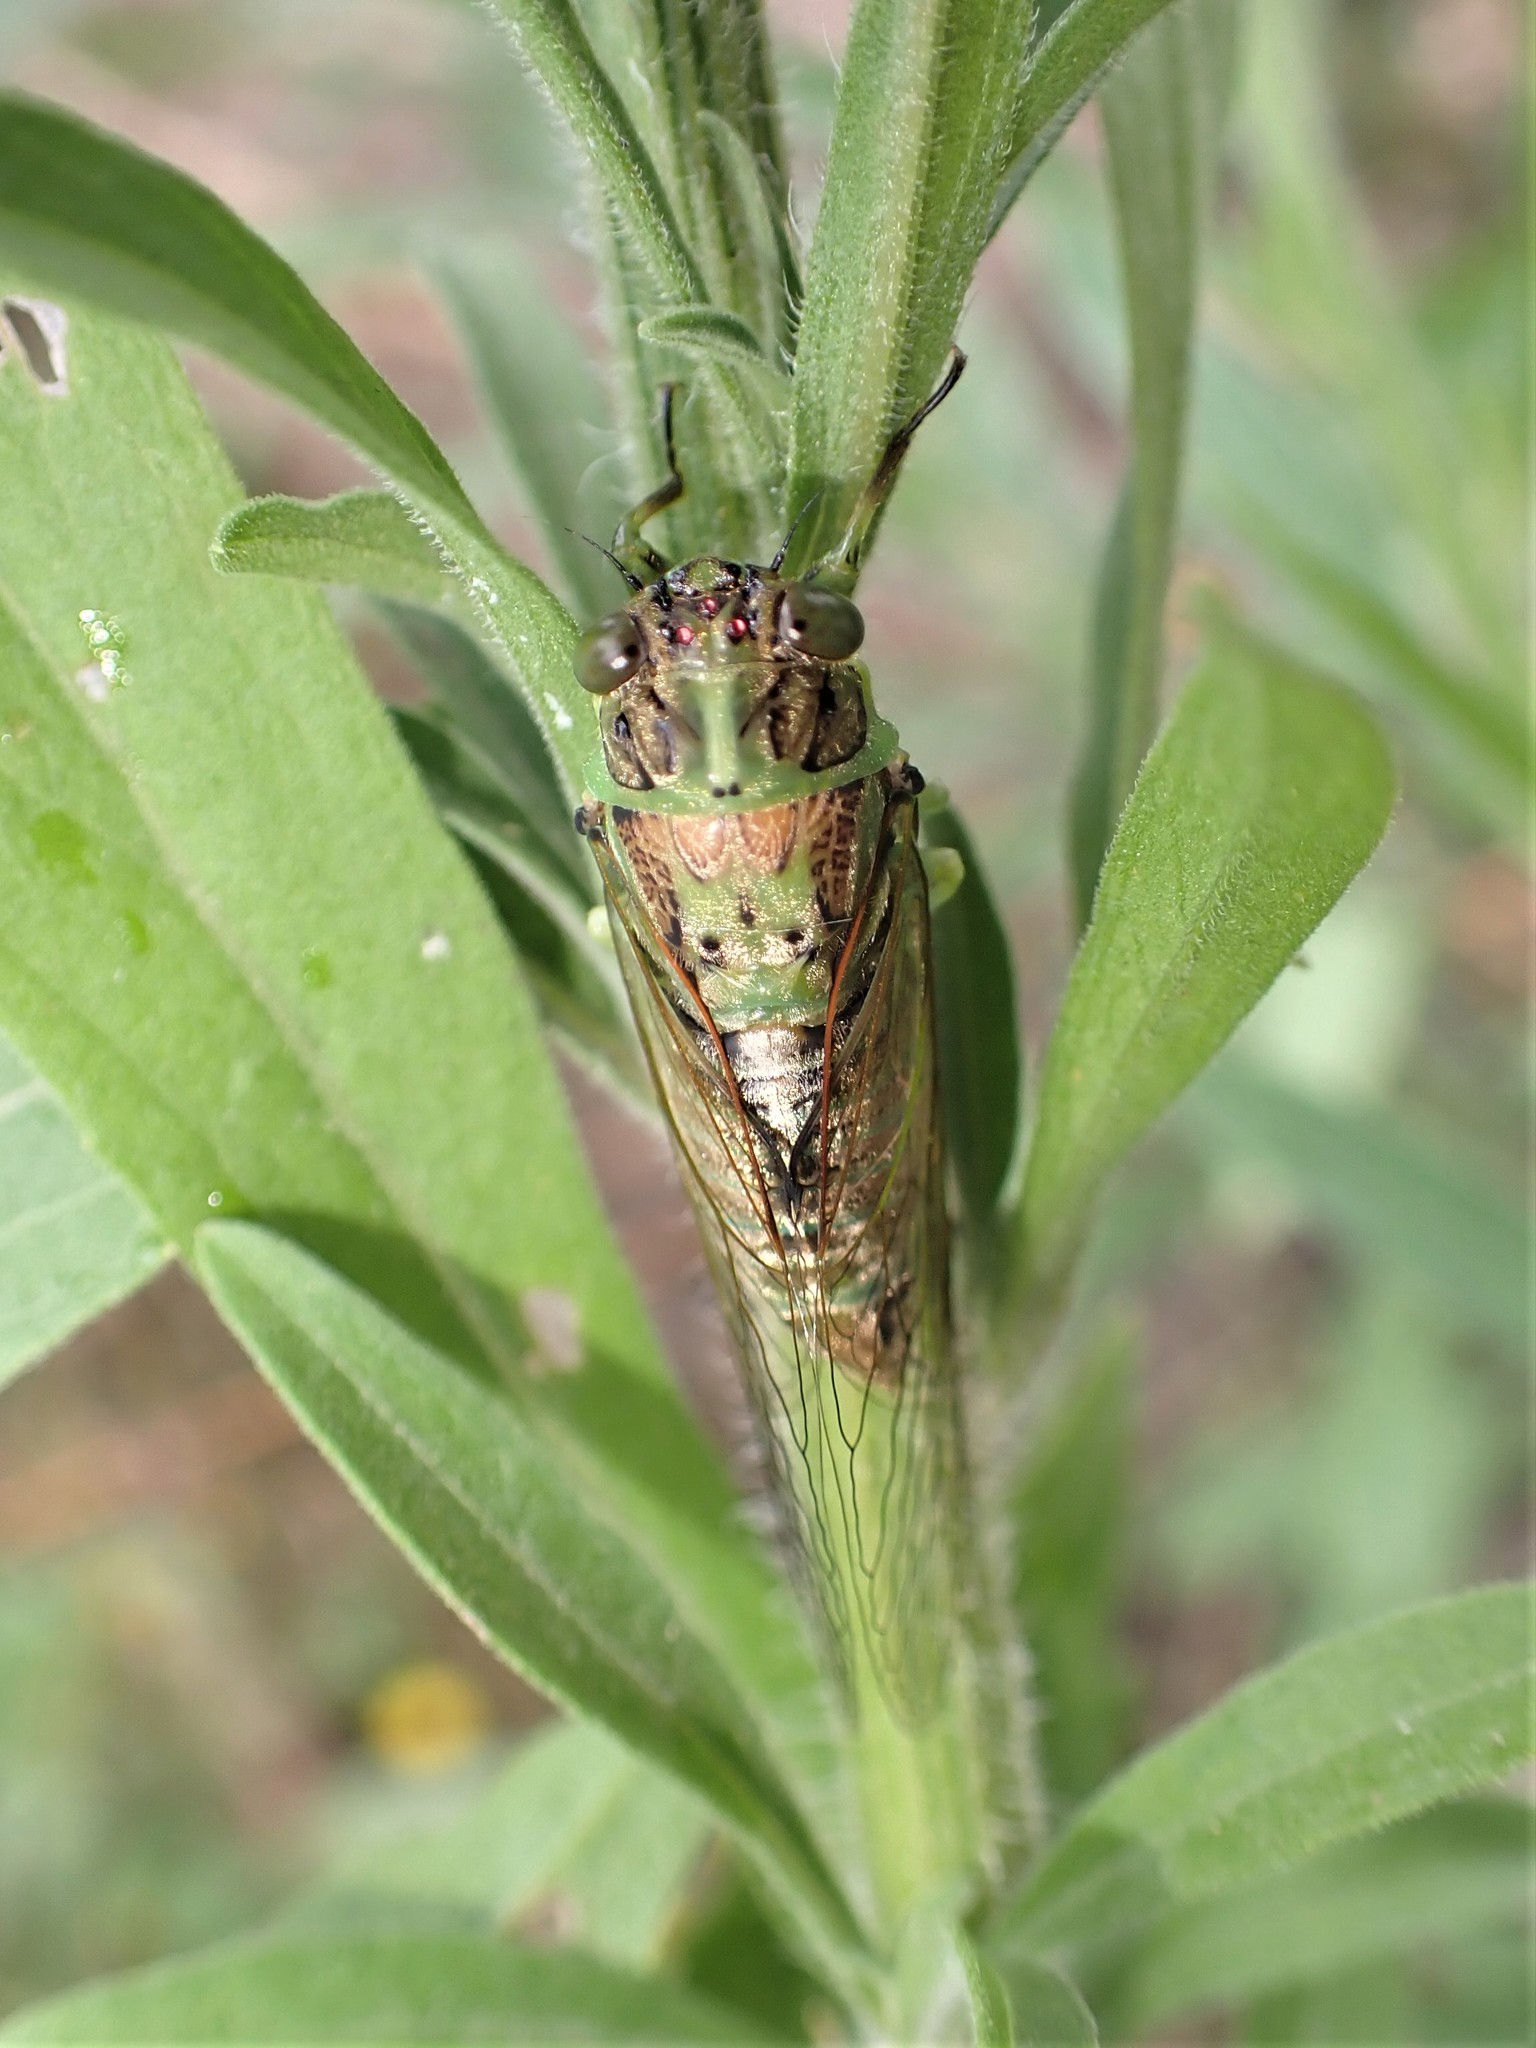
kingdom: Animalia
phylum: Arthropoda
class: Insecta
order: Hemiptera
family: Cicadidae
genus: Kikihia
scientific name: Kikihia scutellaris
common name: Lesser bronze cicada
